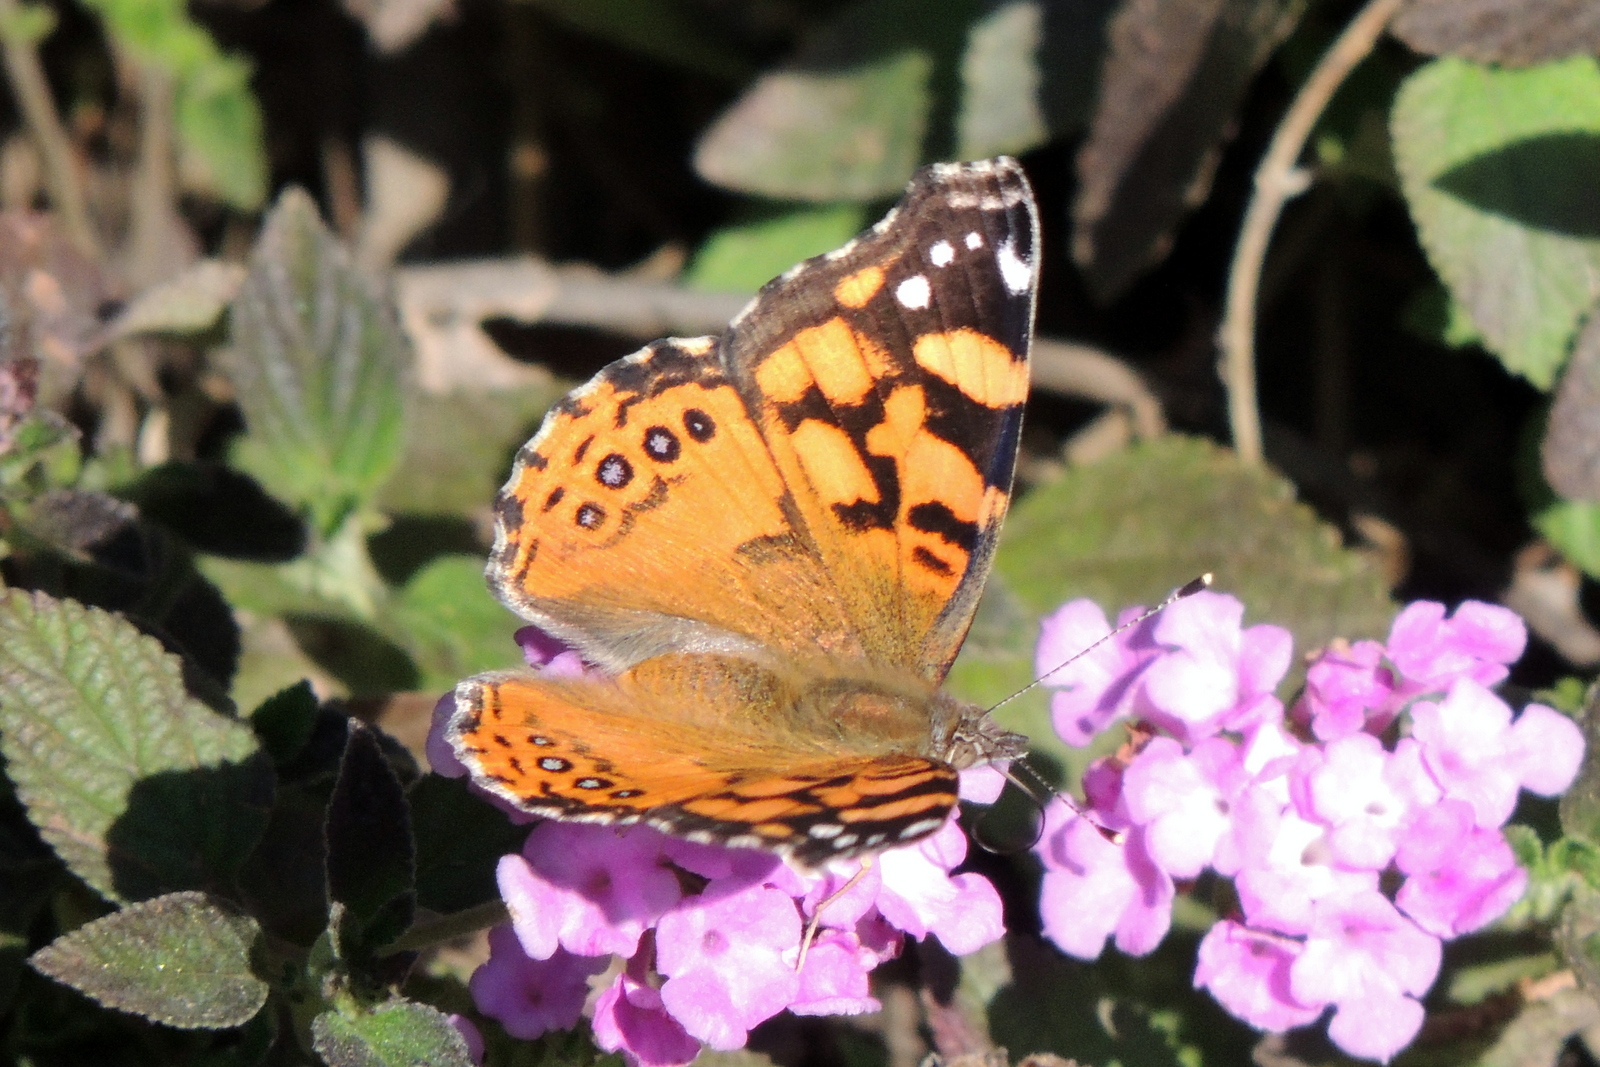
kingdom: Animalia
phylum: Arthropoda
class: Insecta
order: Lepidoptera
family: Nymphalidae
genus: Vanessa
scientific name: Vanessa annabella
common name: West coast lady
